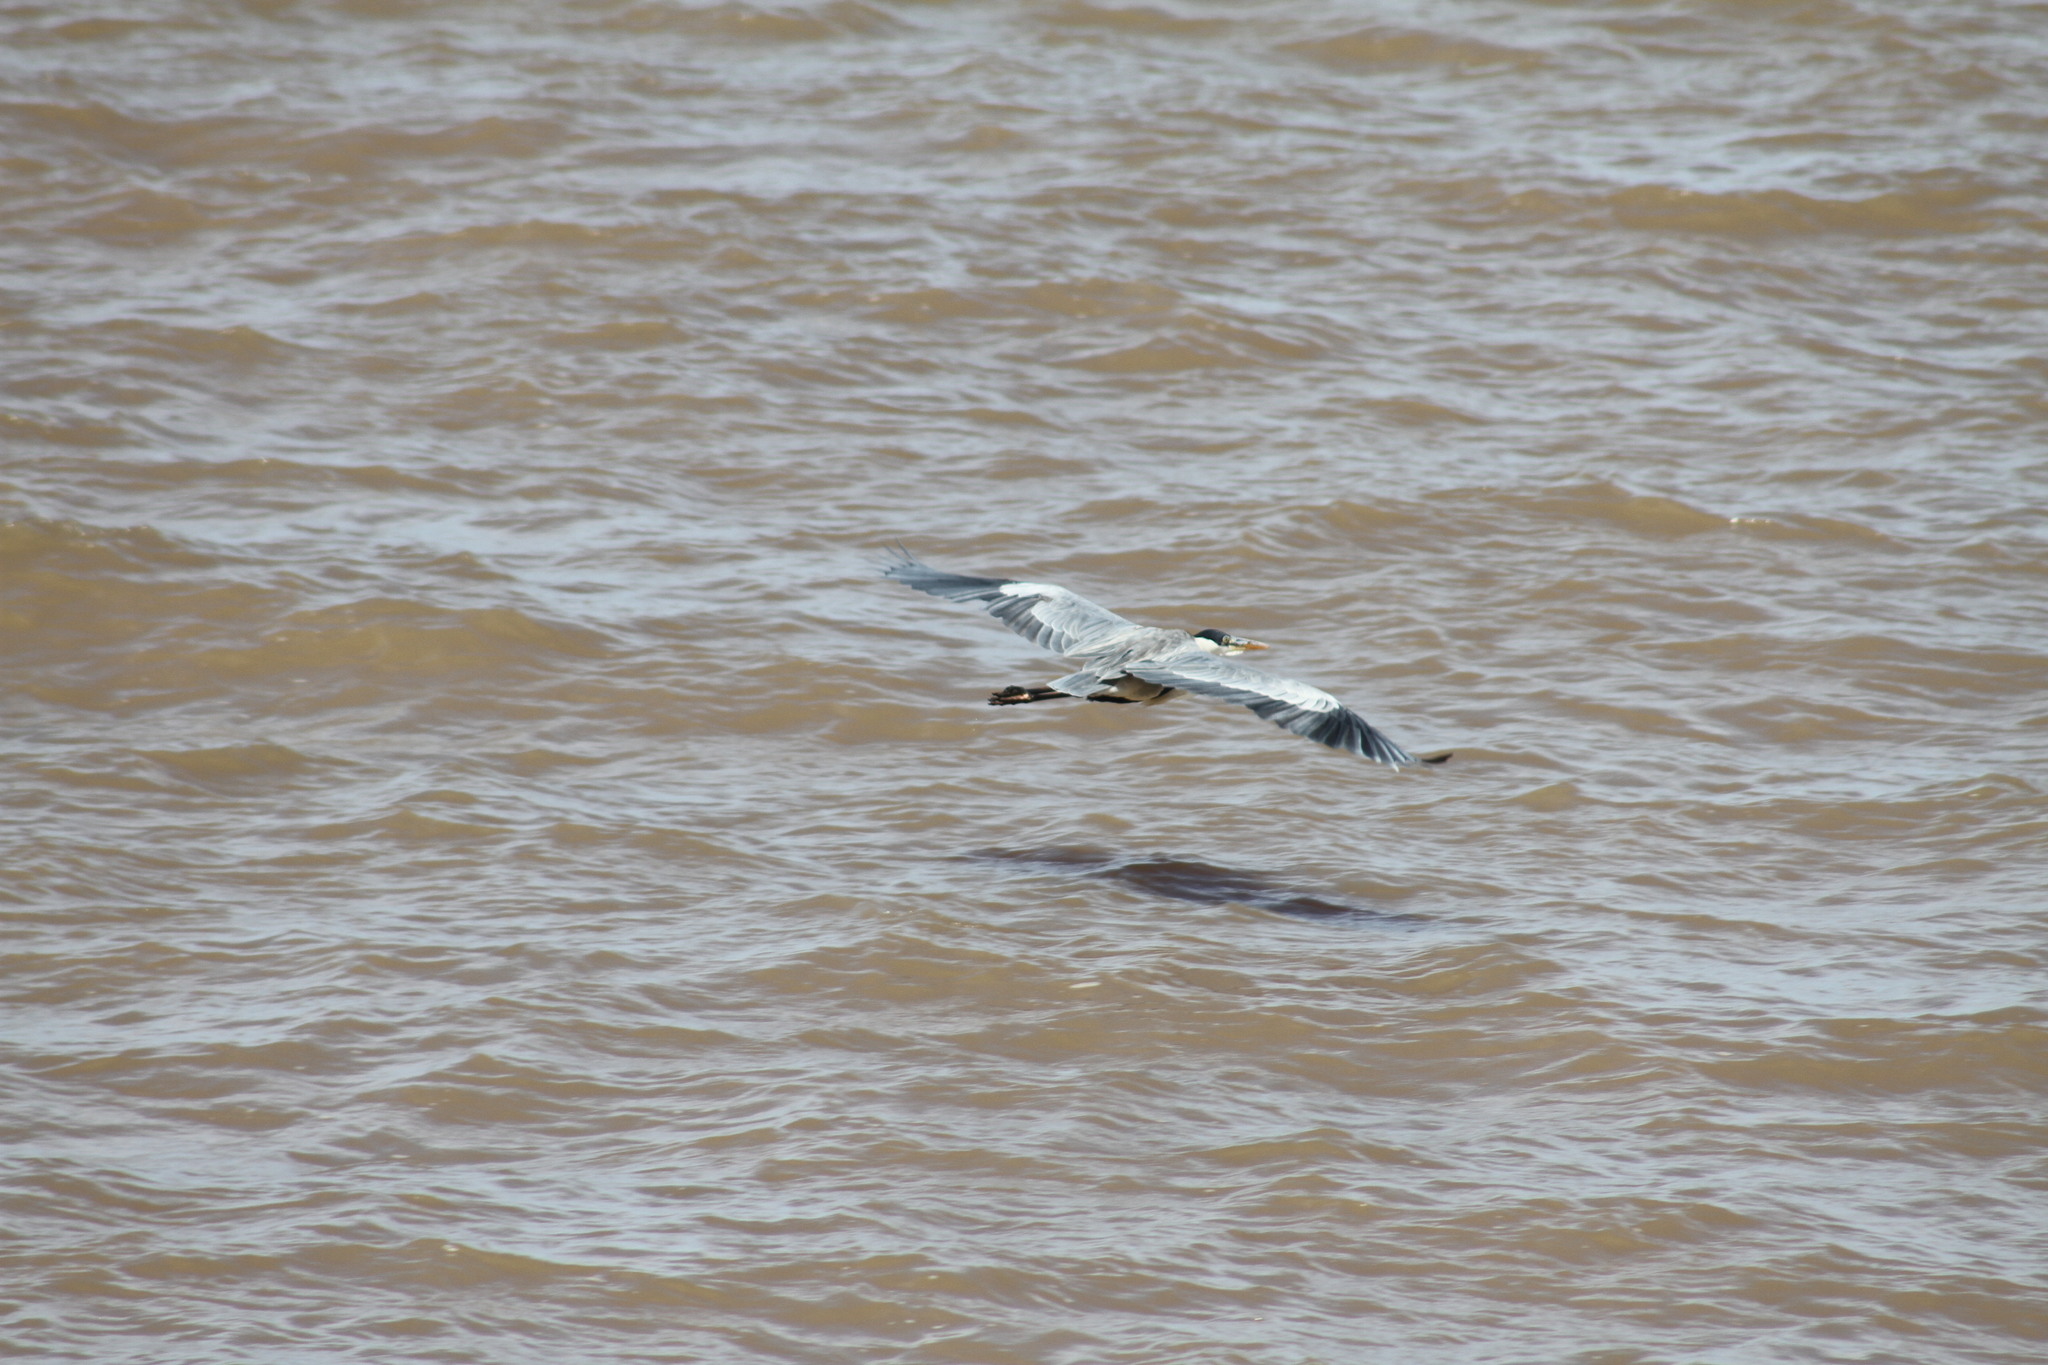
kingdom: Animalia
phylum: Chordata
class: Aves
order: Pelecaniformes
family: Ardeidae
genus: Ardea
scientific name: Ardea cocoi
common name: Cocoi heron
